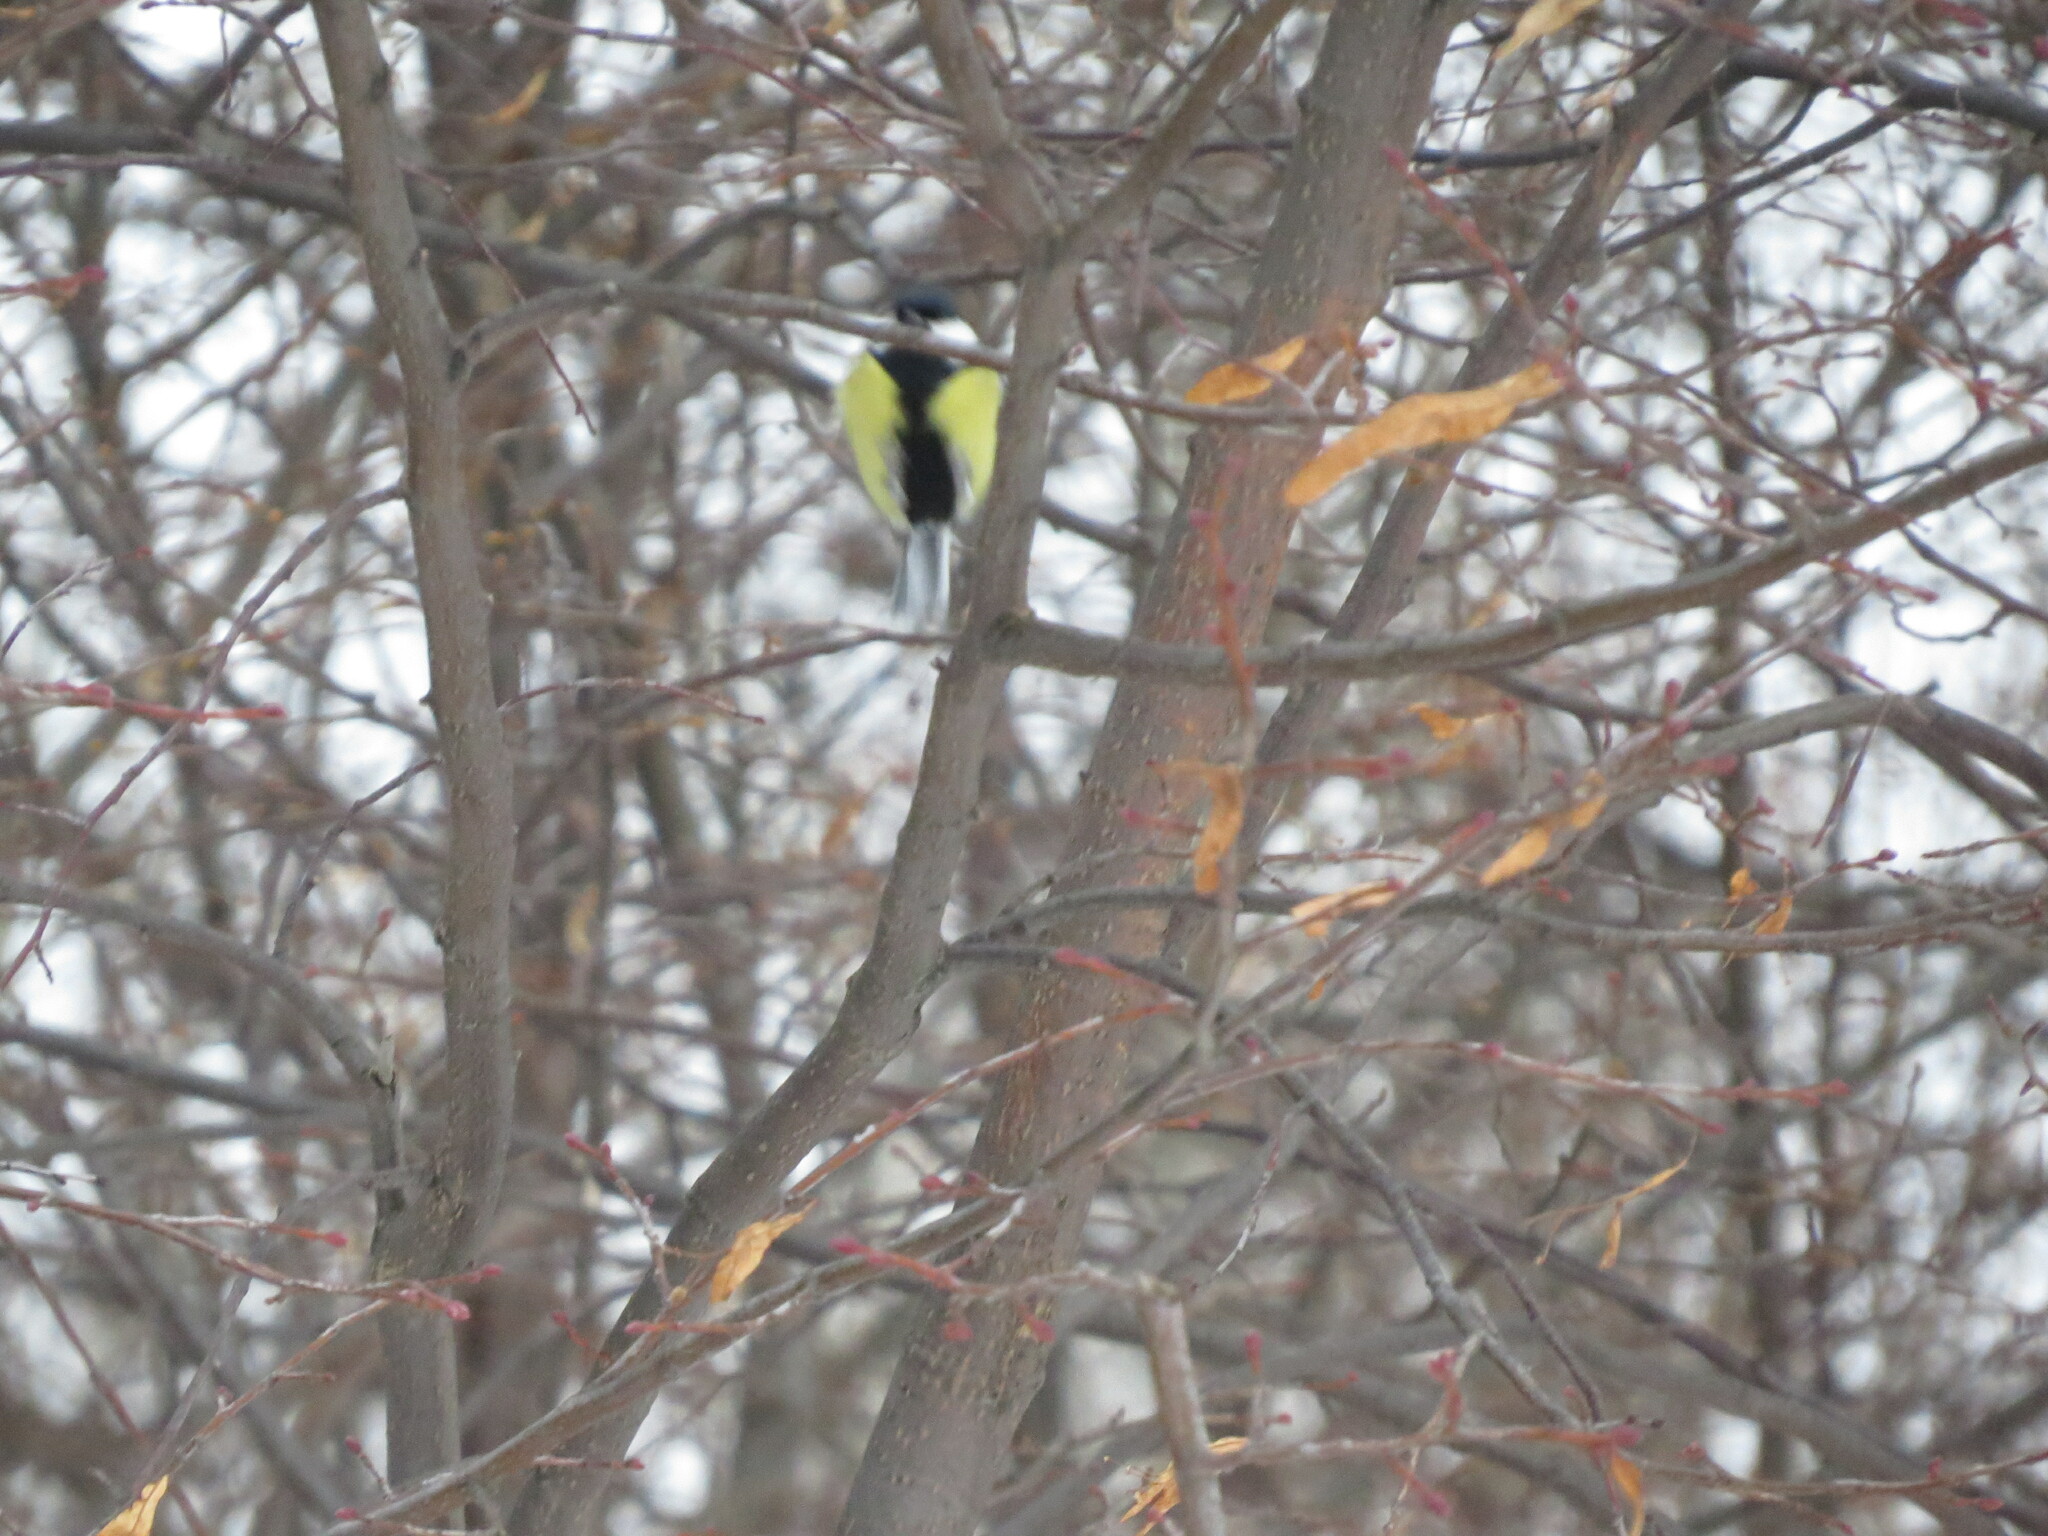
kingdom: Animalia
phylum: Chordata
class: Aves
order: Passeriformes
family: Paridae
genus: Parus
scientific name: Parus major
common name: Great tit
